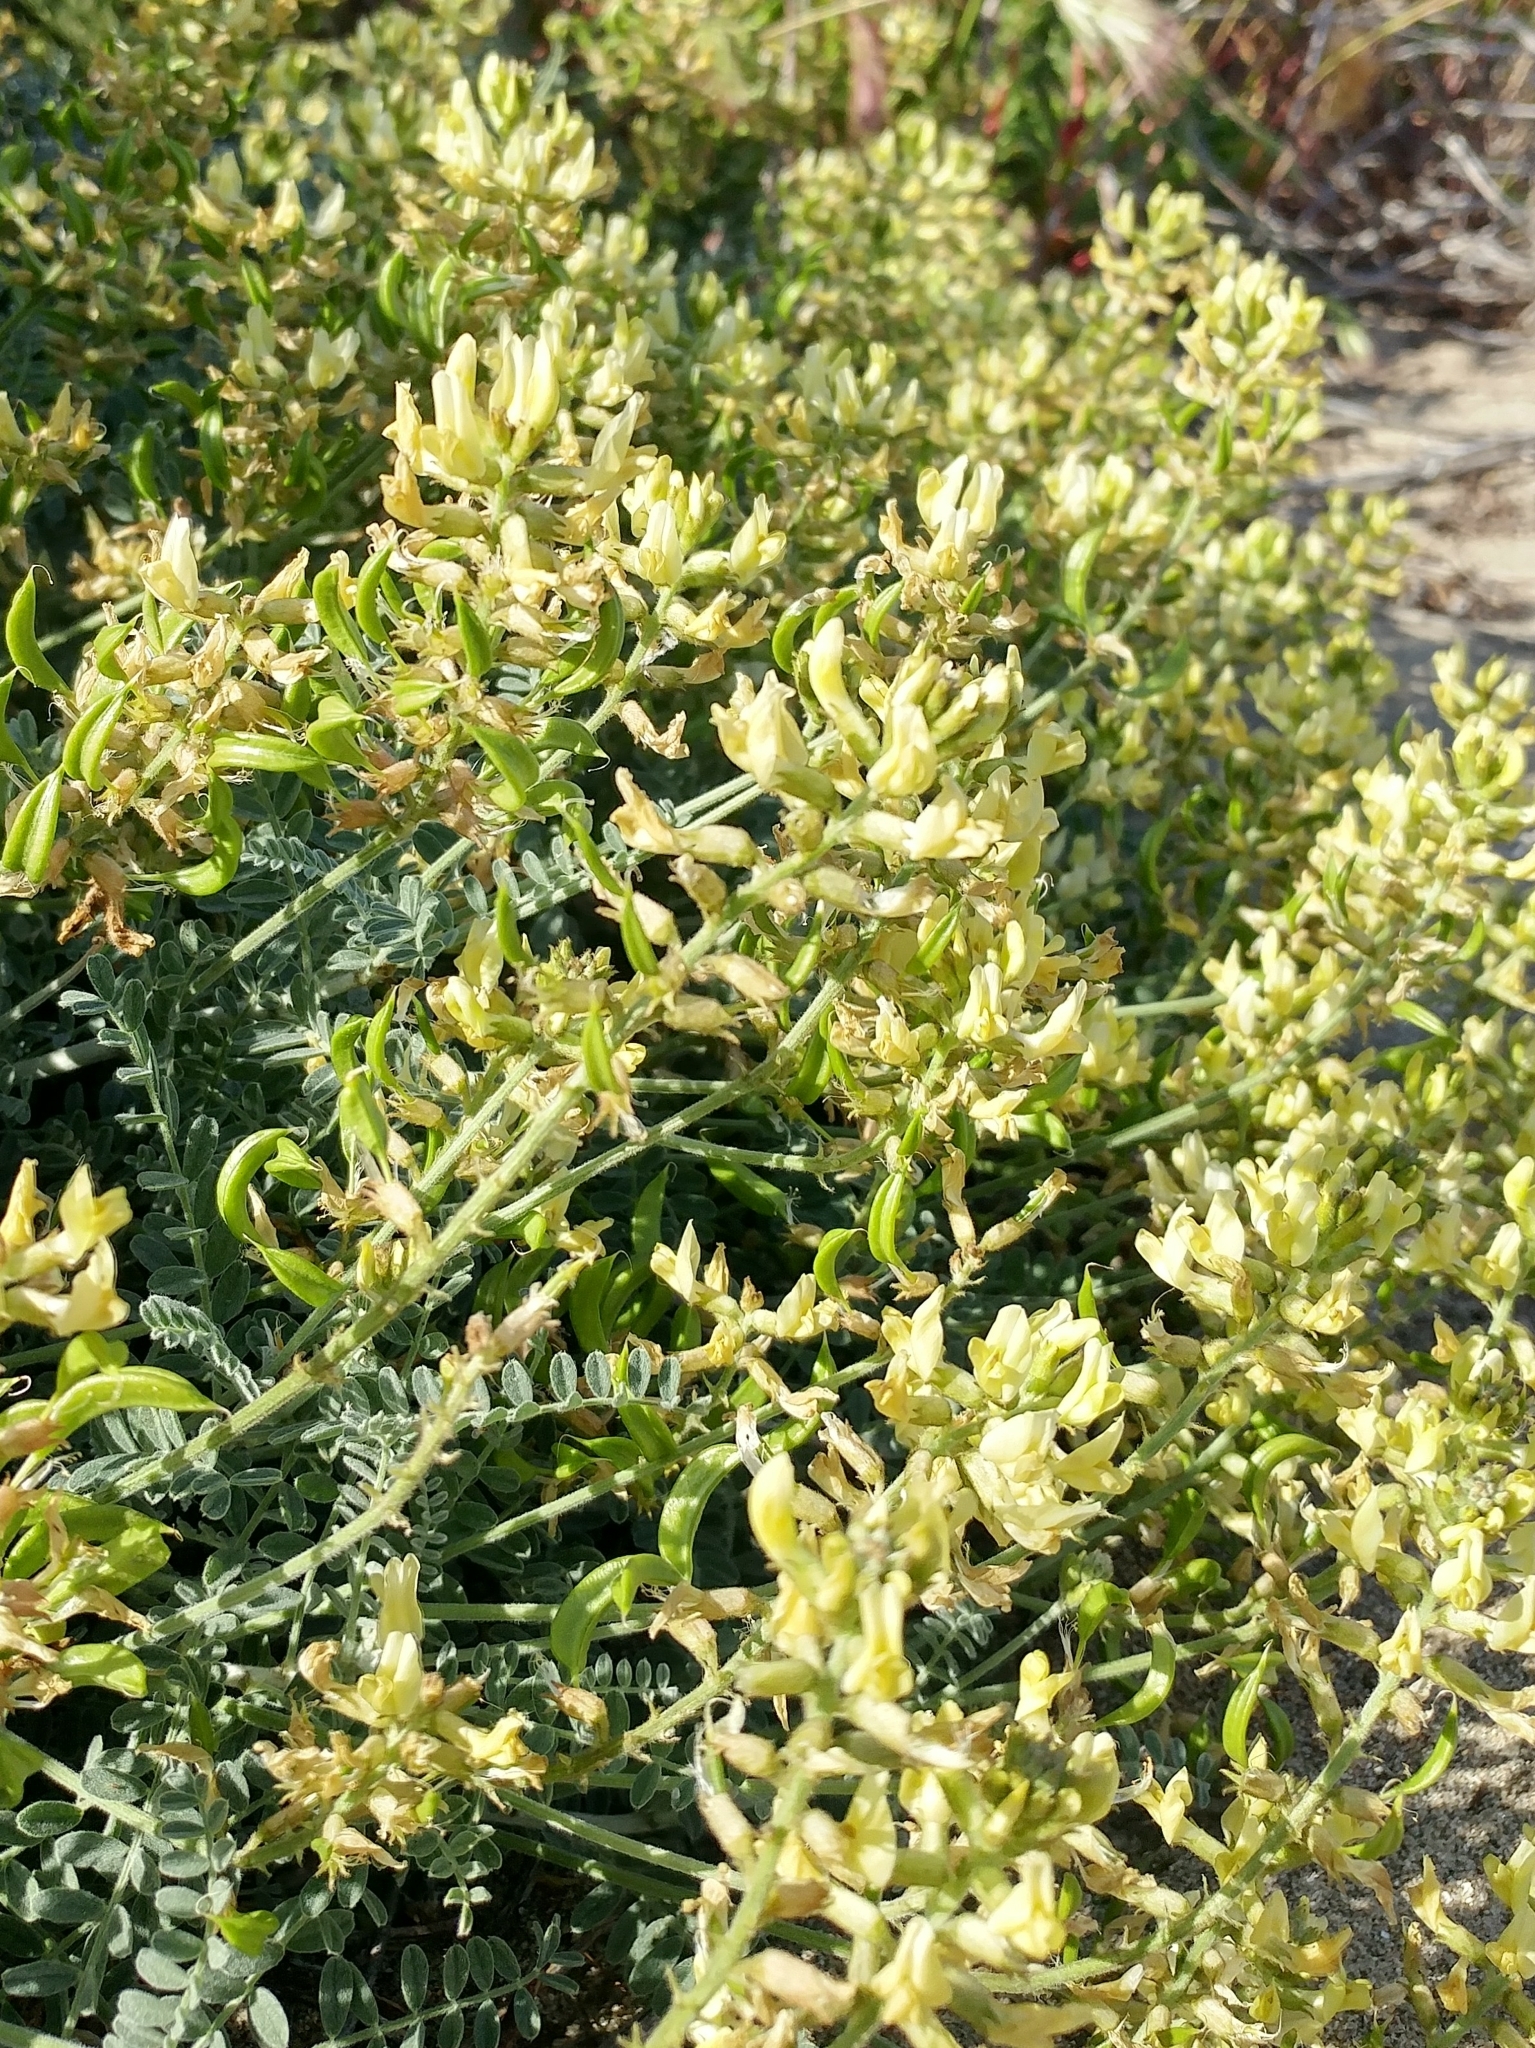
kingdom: Plantae
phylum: Tracheophyta
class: Magnoliopsida
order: Fabales
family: Fabaceae
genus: Astragalus
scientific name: Astragalus nevinii
